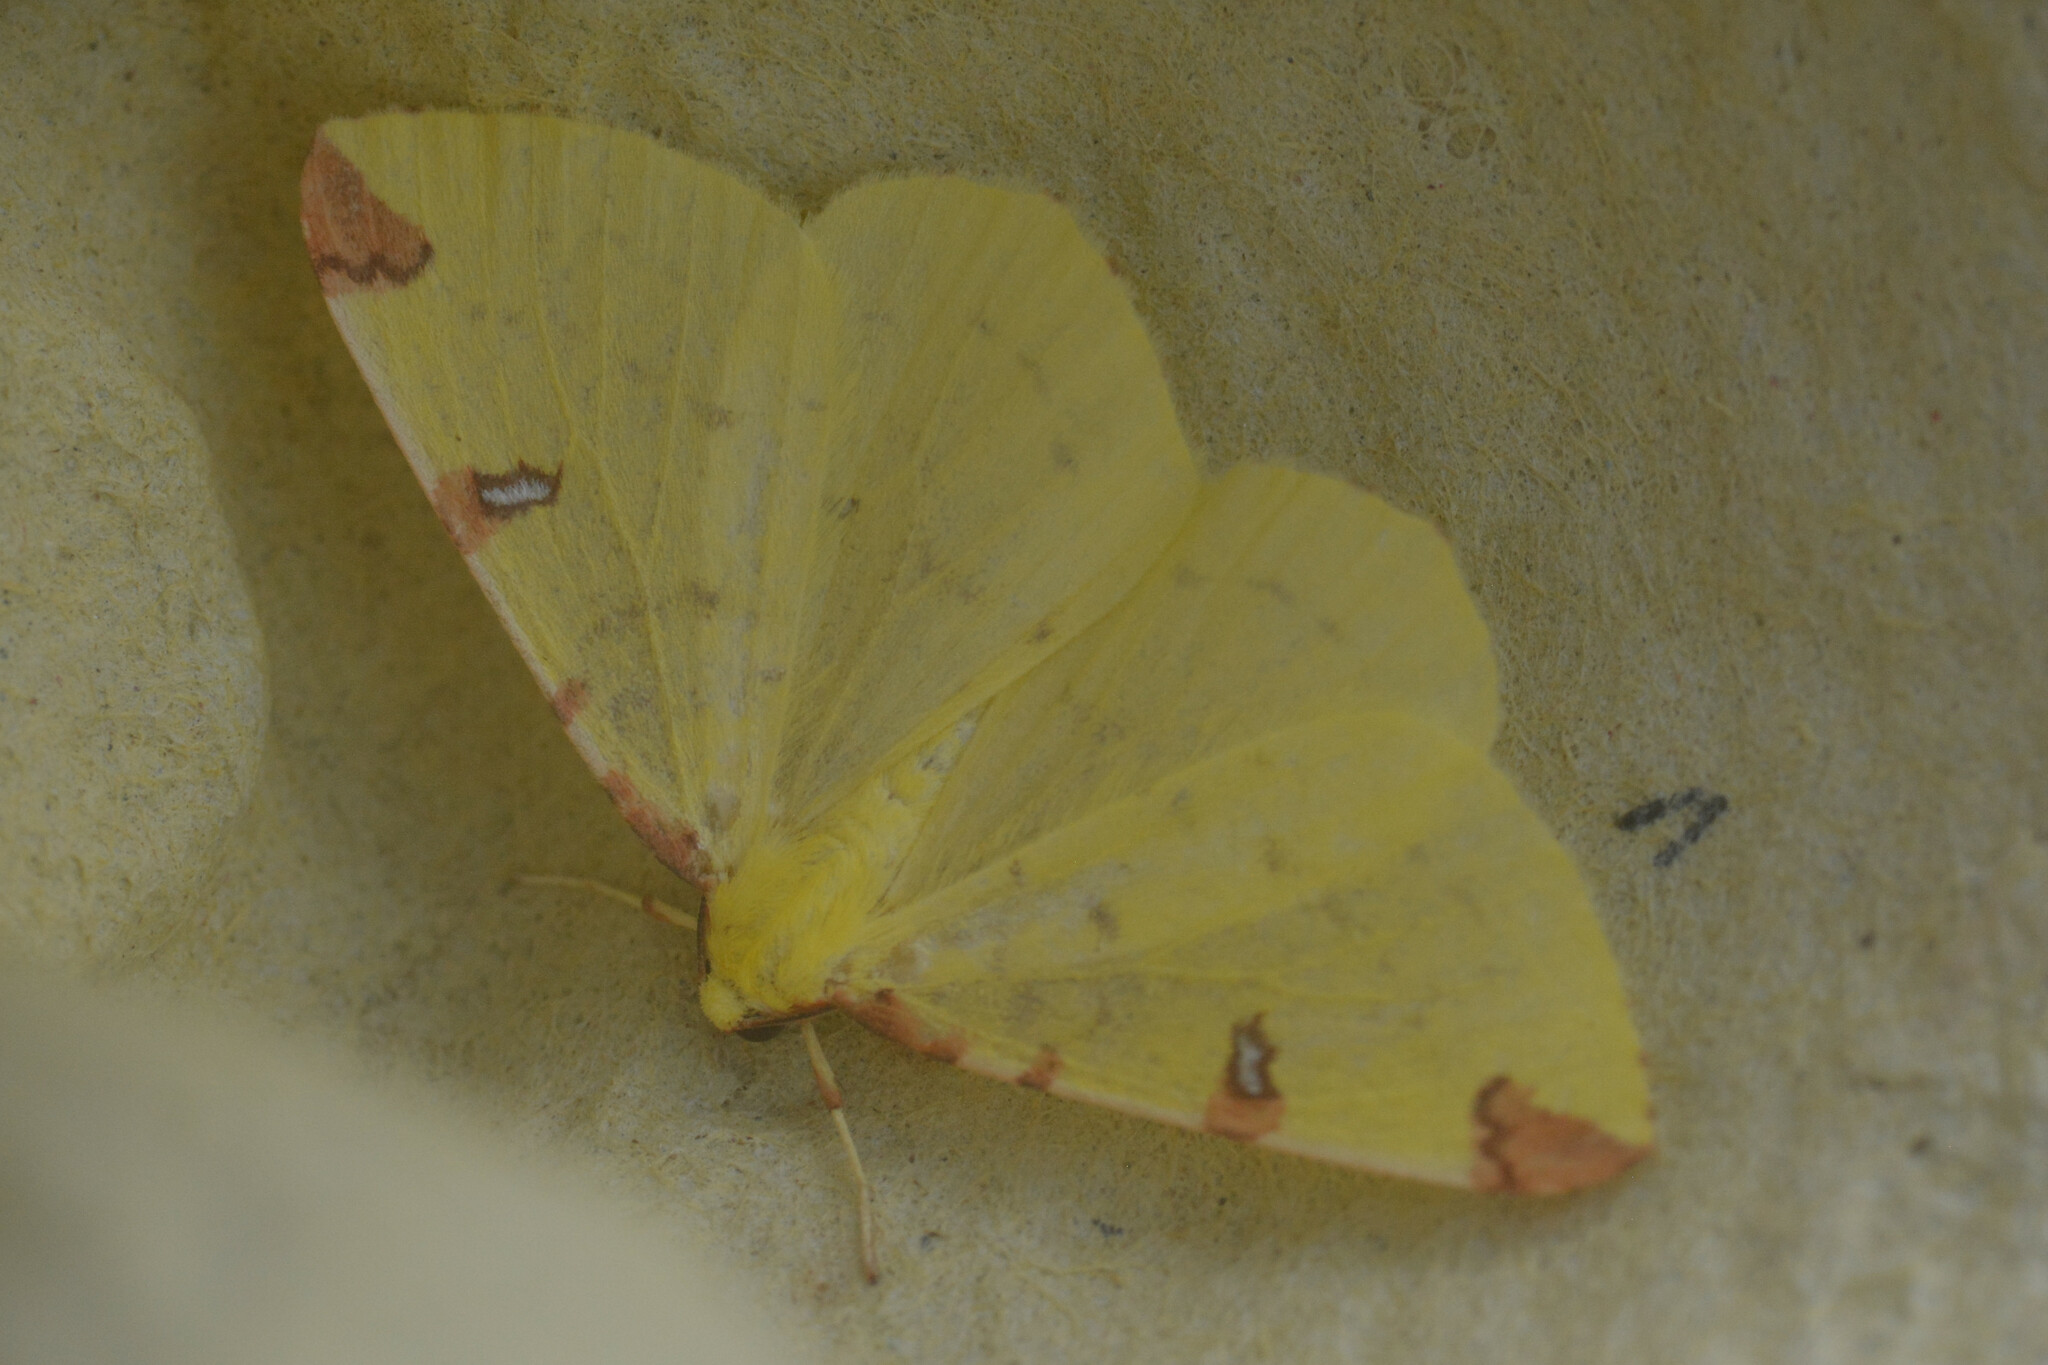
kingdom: Animalia
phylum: Arthropoda
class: Insecta
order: Lepidoptera
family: Geometridae
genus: Opisthograptis
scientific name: Opisthograptis luteolata
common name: Brimstone moth
